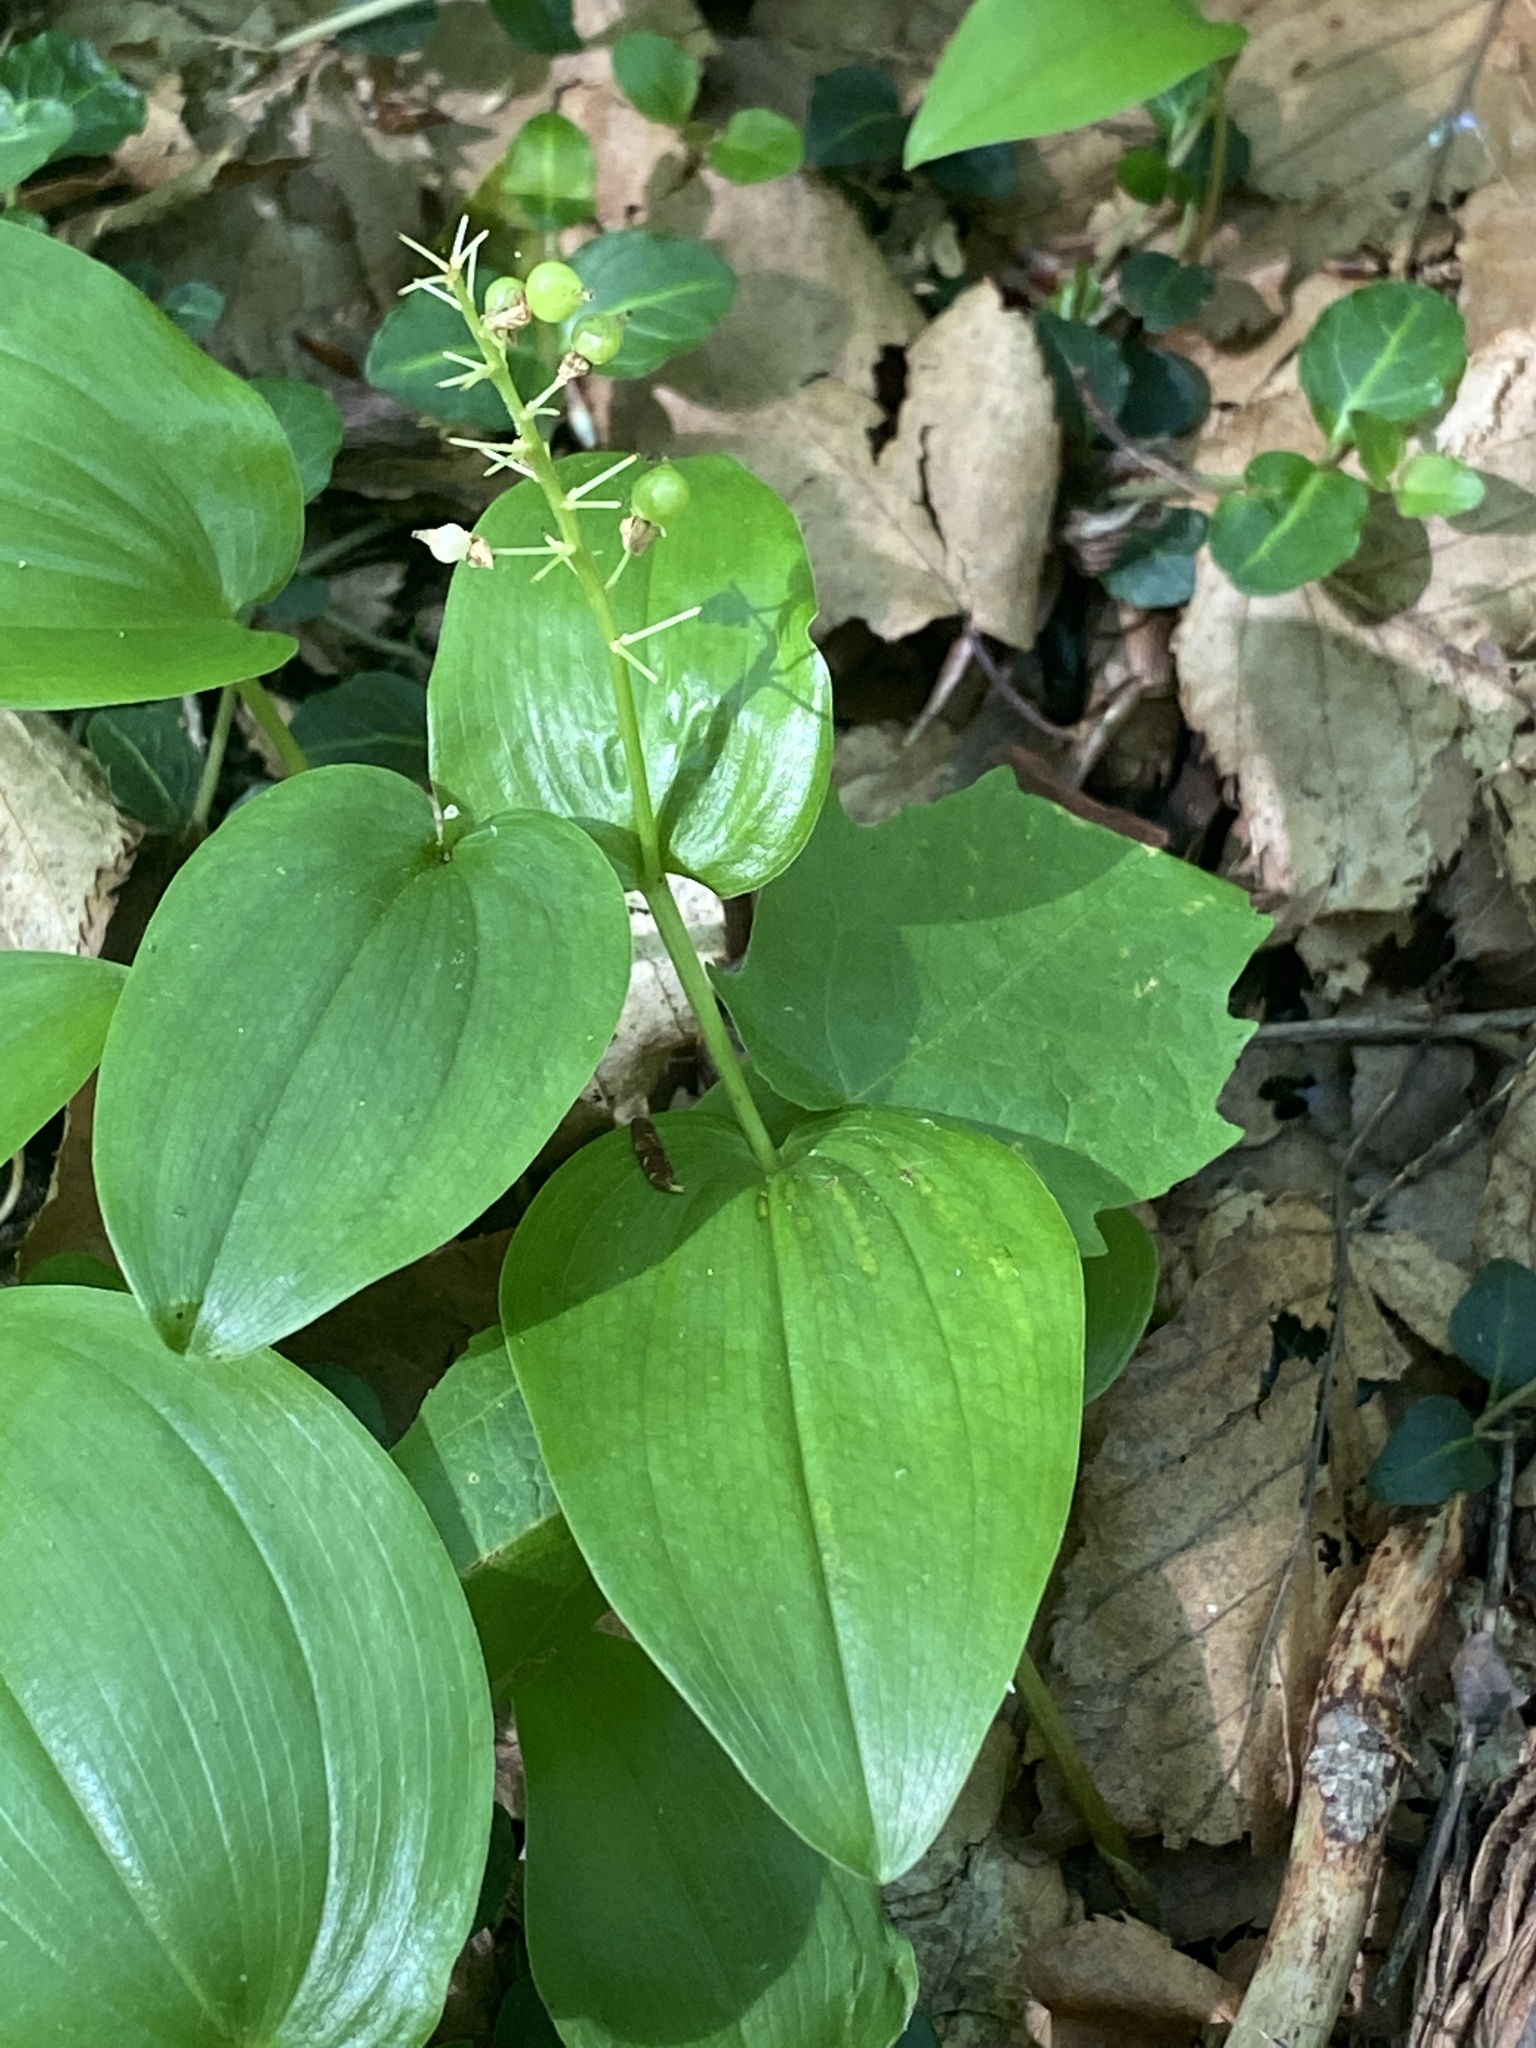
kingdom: Plantae
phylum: Tracheophyta
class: Liliopsida
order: Asparagales
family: Asparagaceae
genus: Maianthemum
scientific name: Maianthemum canadense
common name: False lily-of-the-valley
